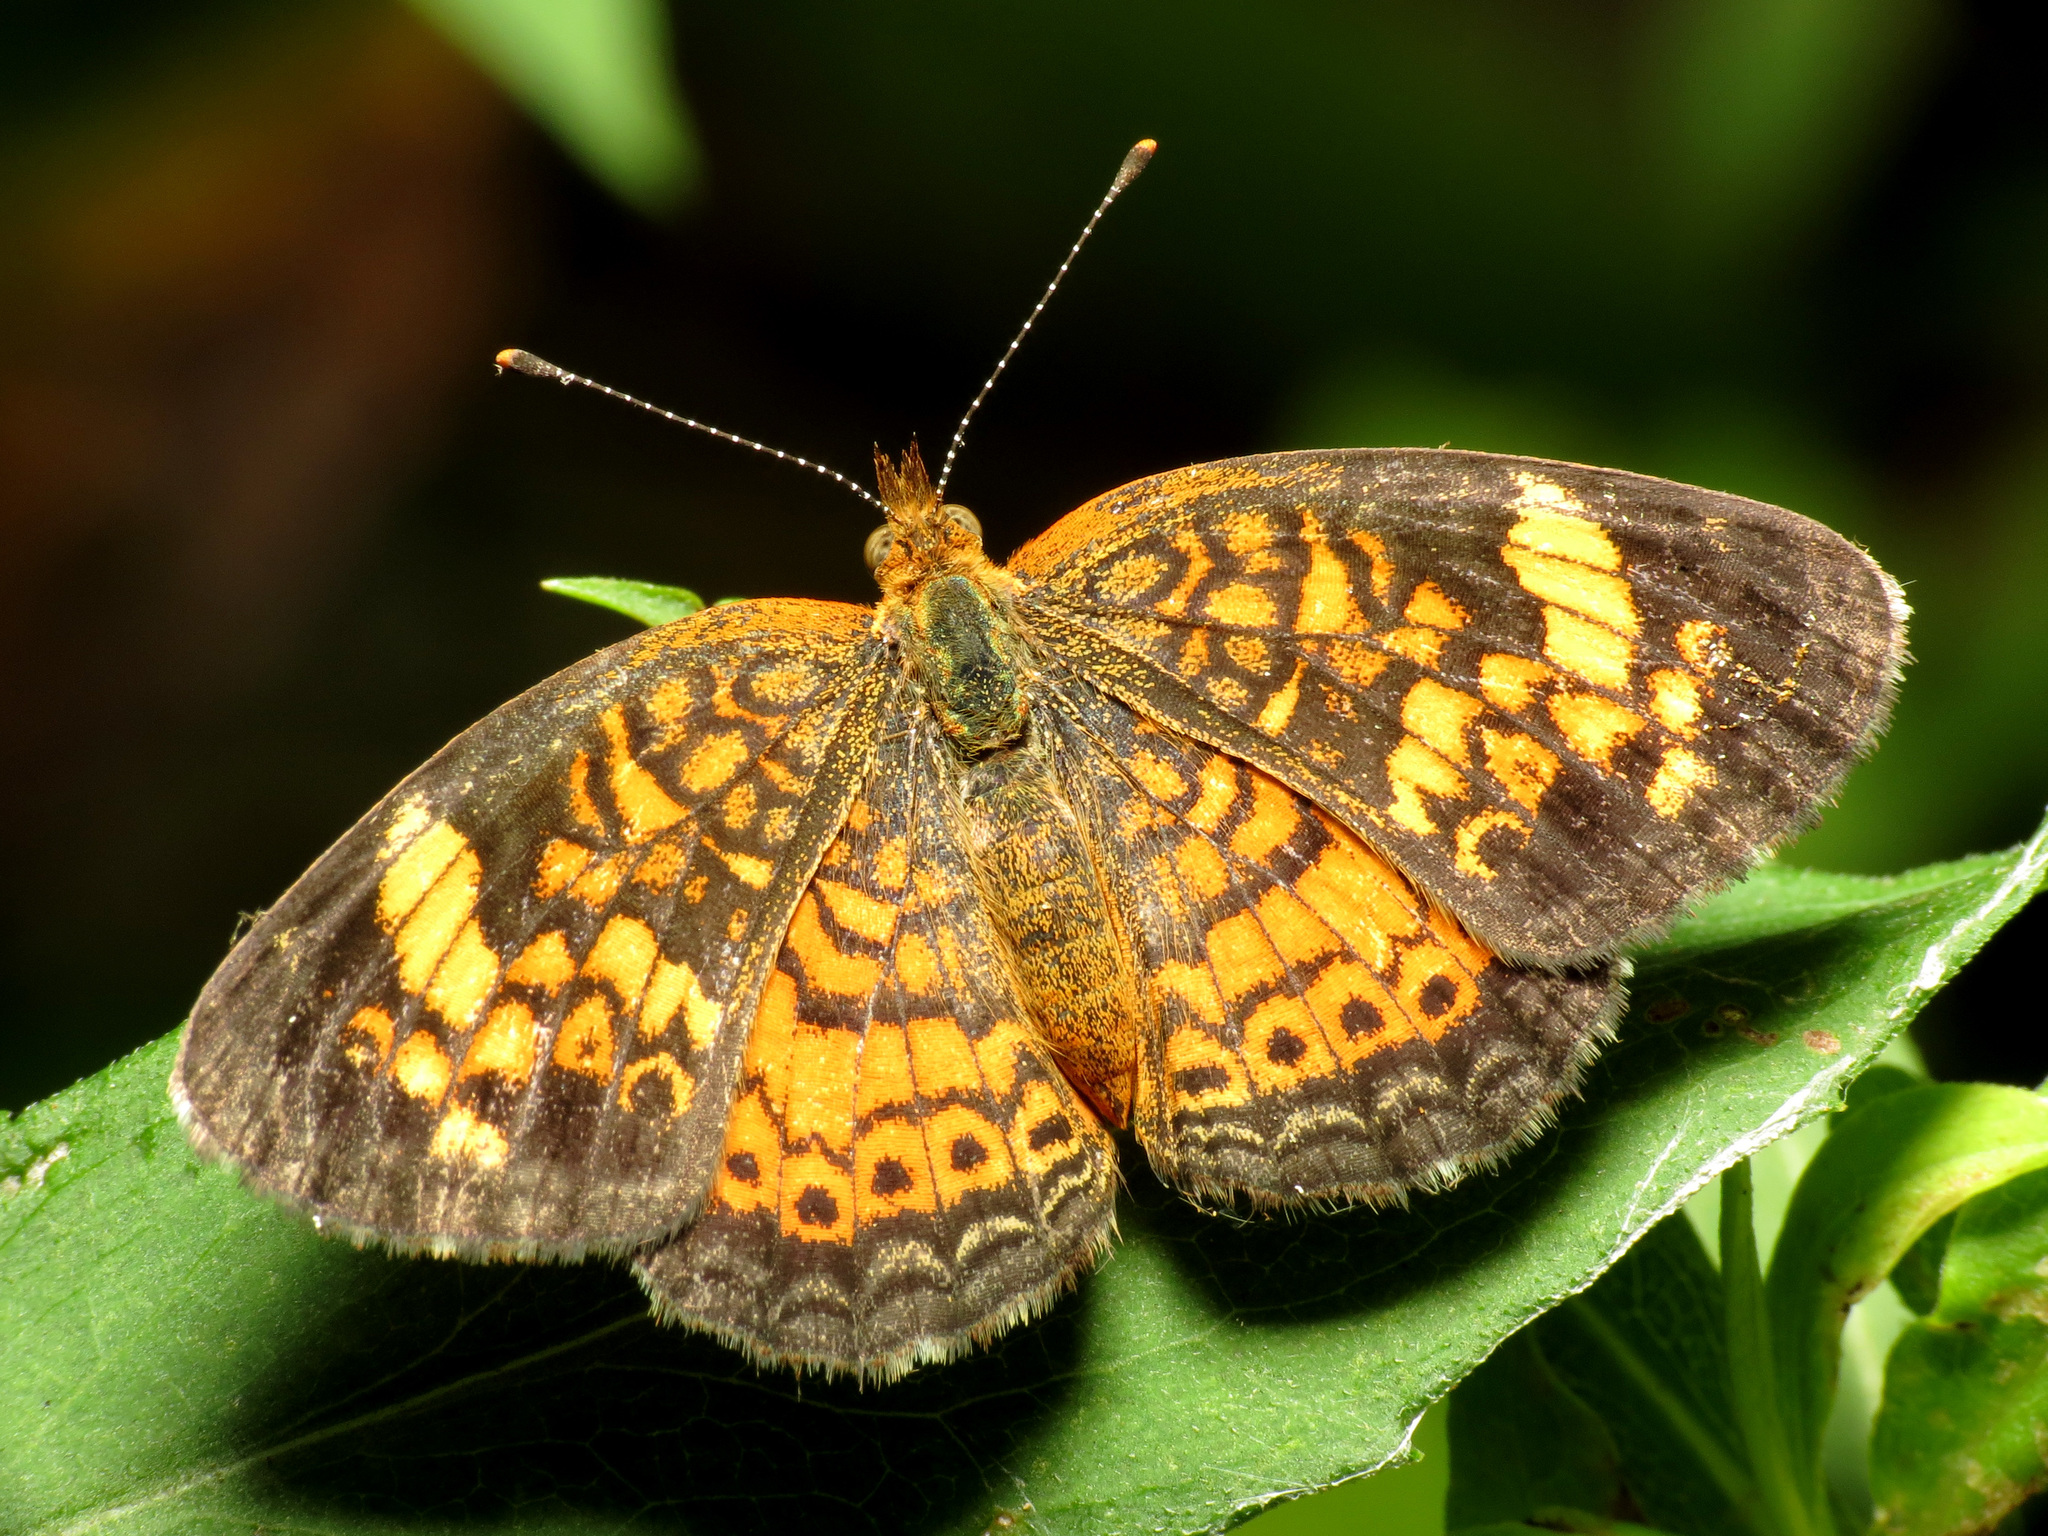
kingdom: Animalia
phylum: Arthropoda
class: Insecta
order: Lepidoptera
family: Nymphalidae
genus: Phyciodes
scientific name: Phyciodes tharos
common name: Pearl crescent
